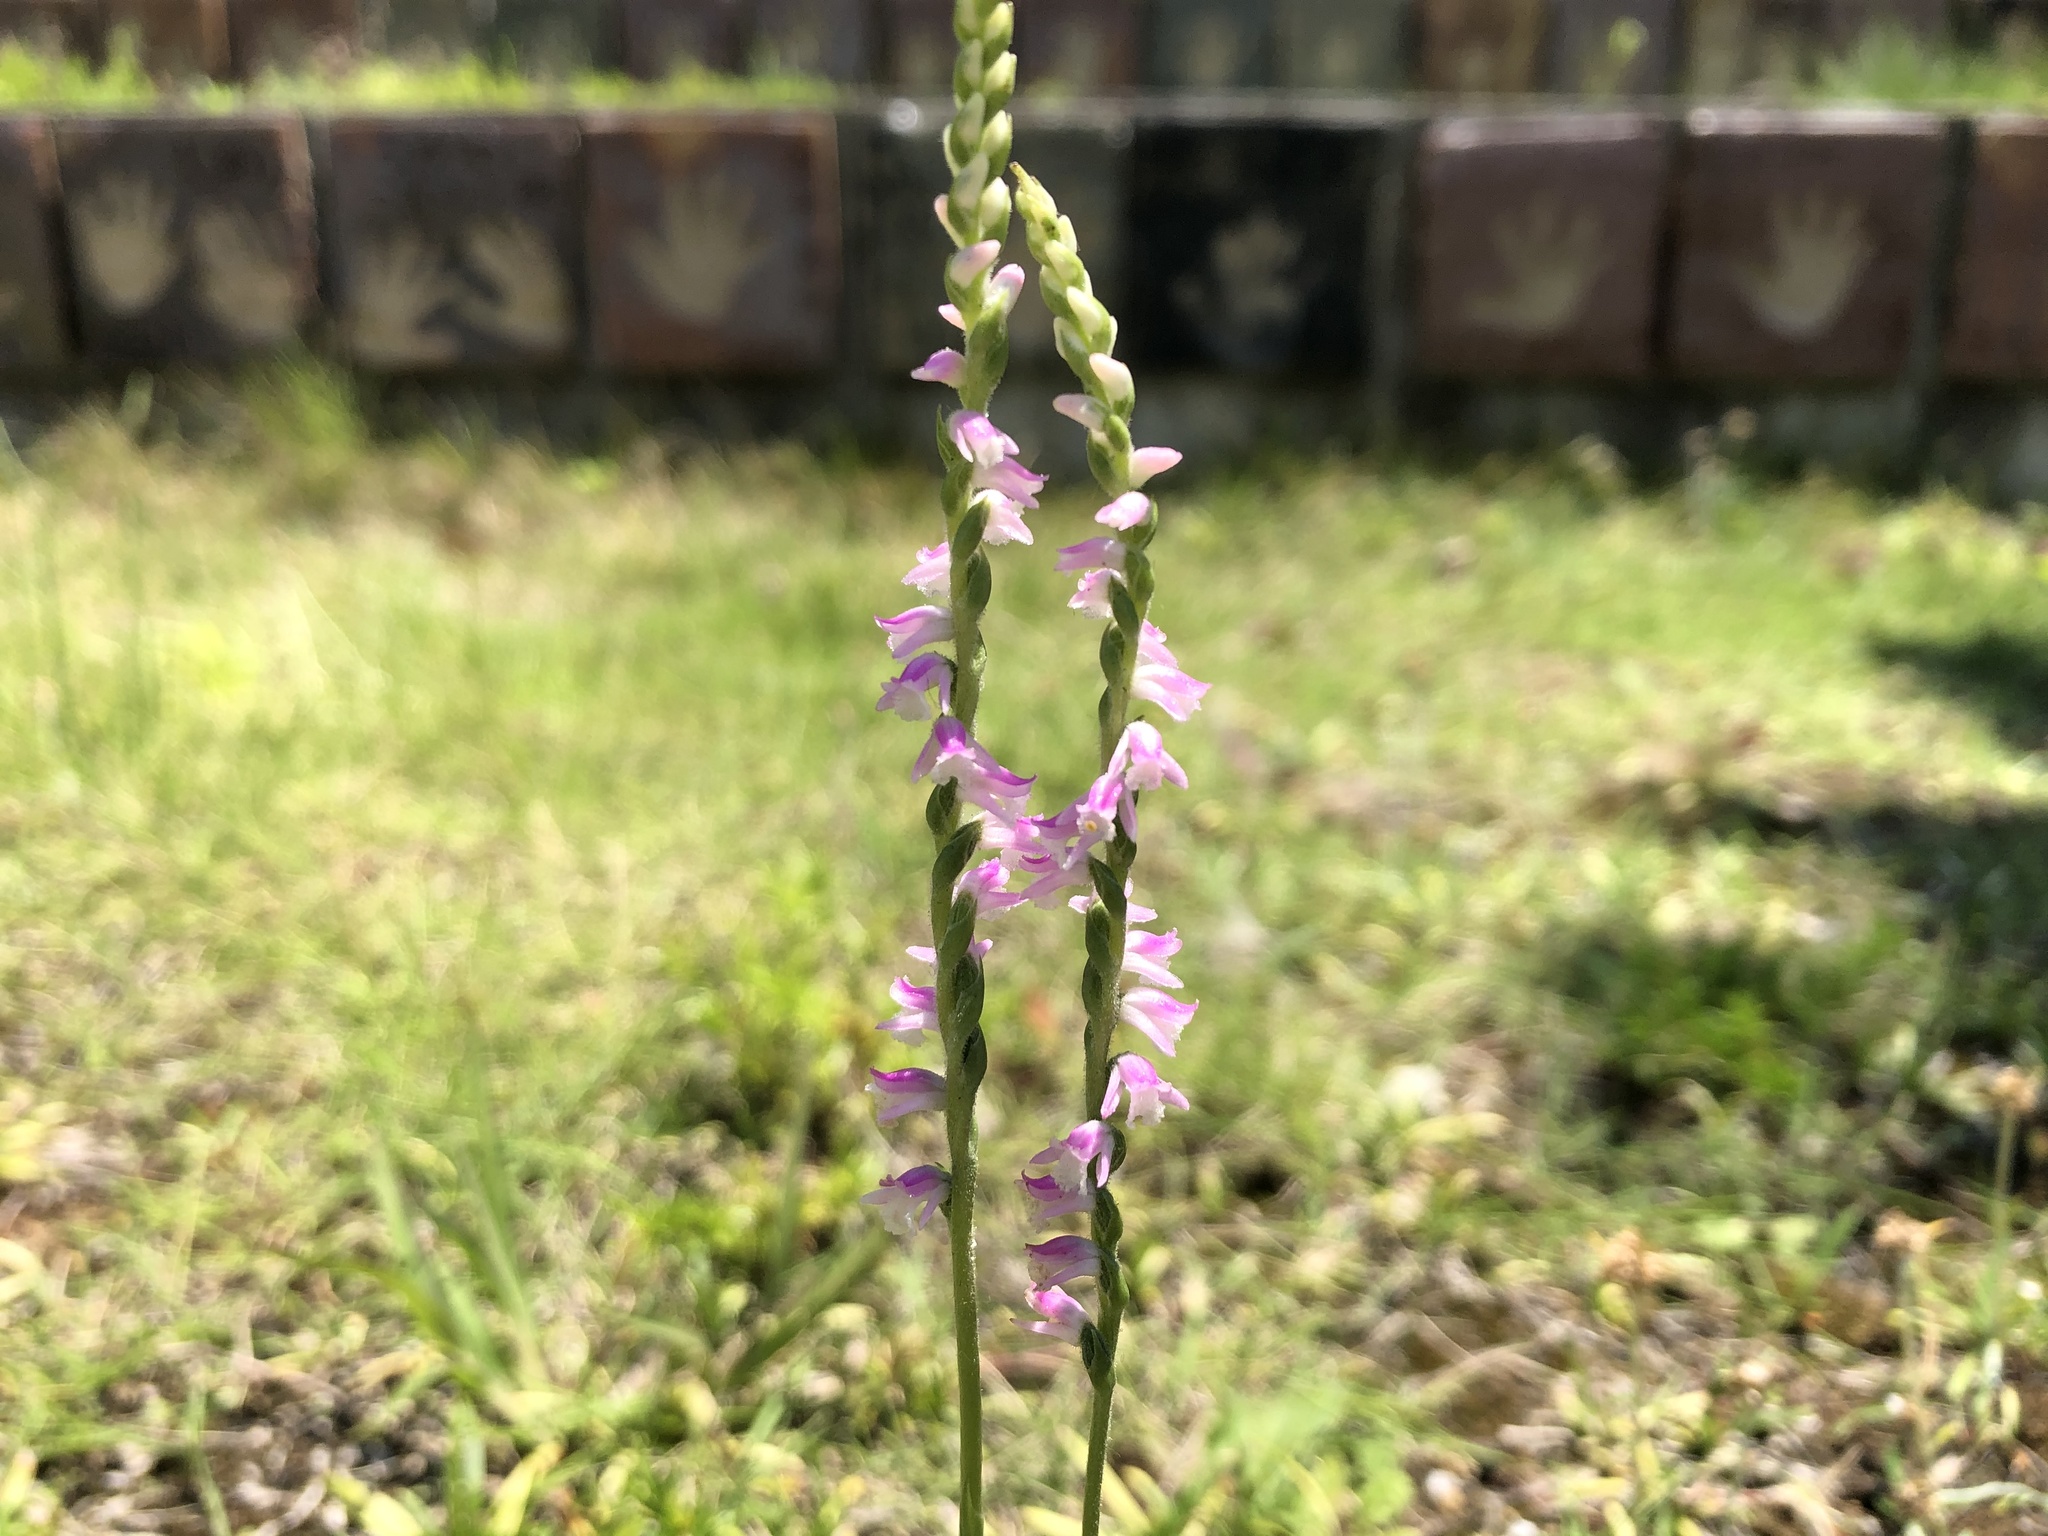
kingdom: Plantae
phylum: Tracheophyta
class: Liliopsida
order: Asparagales
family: Orchidaceae
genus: Spiranthes
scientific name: Spiranthes australis
